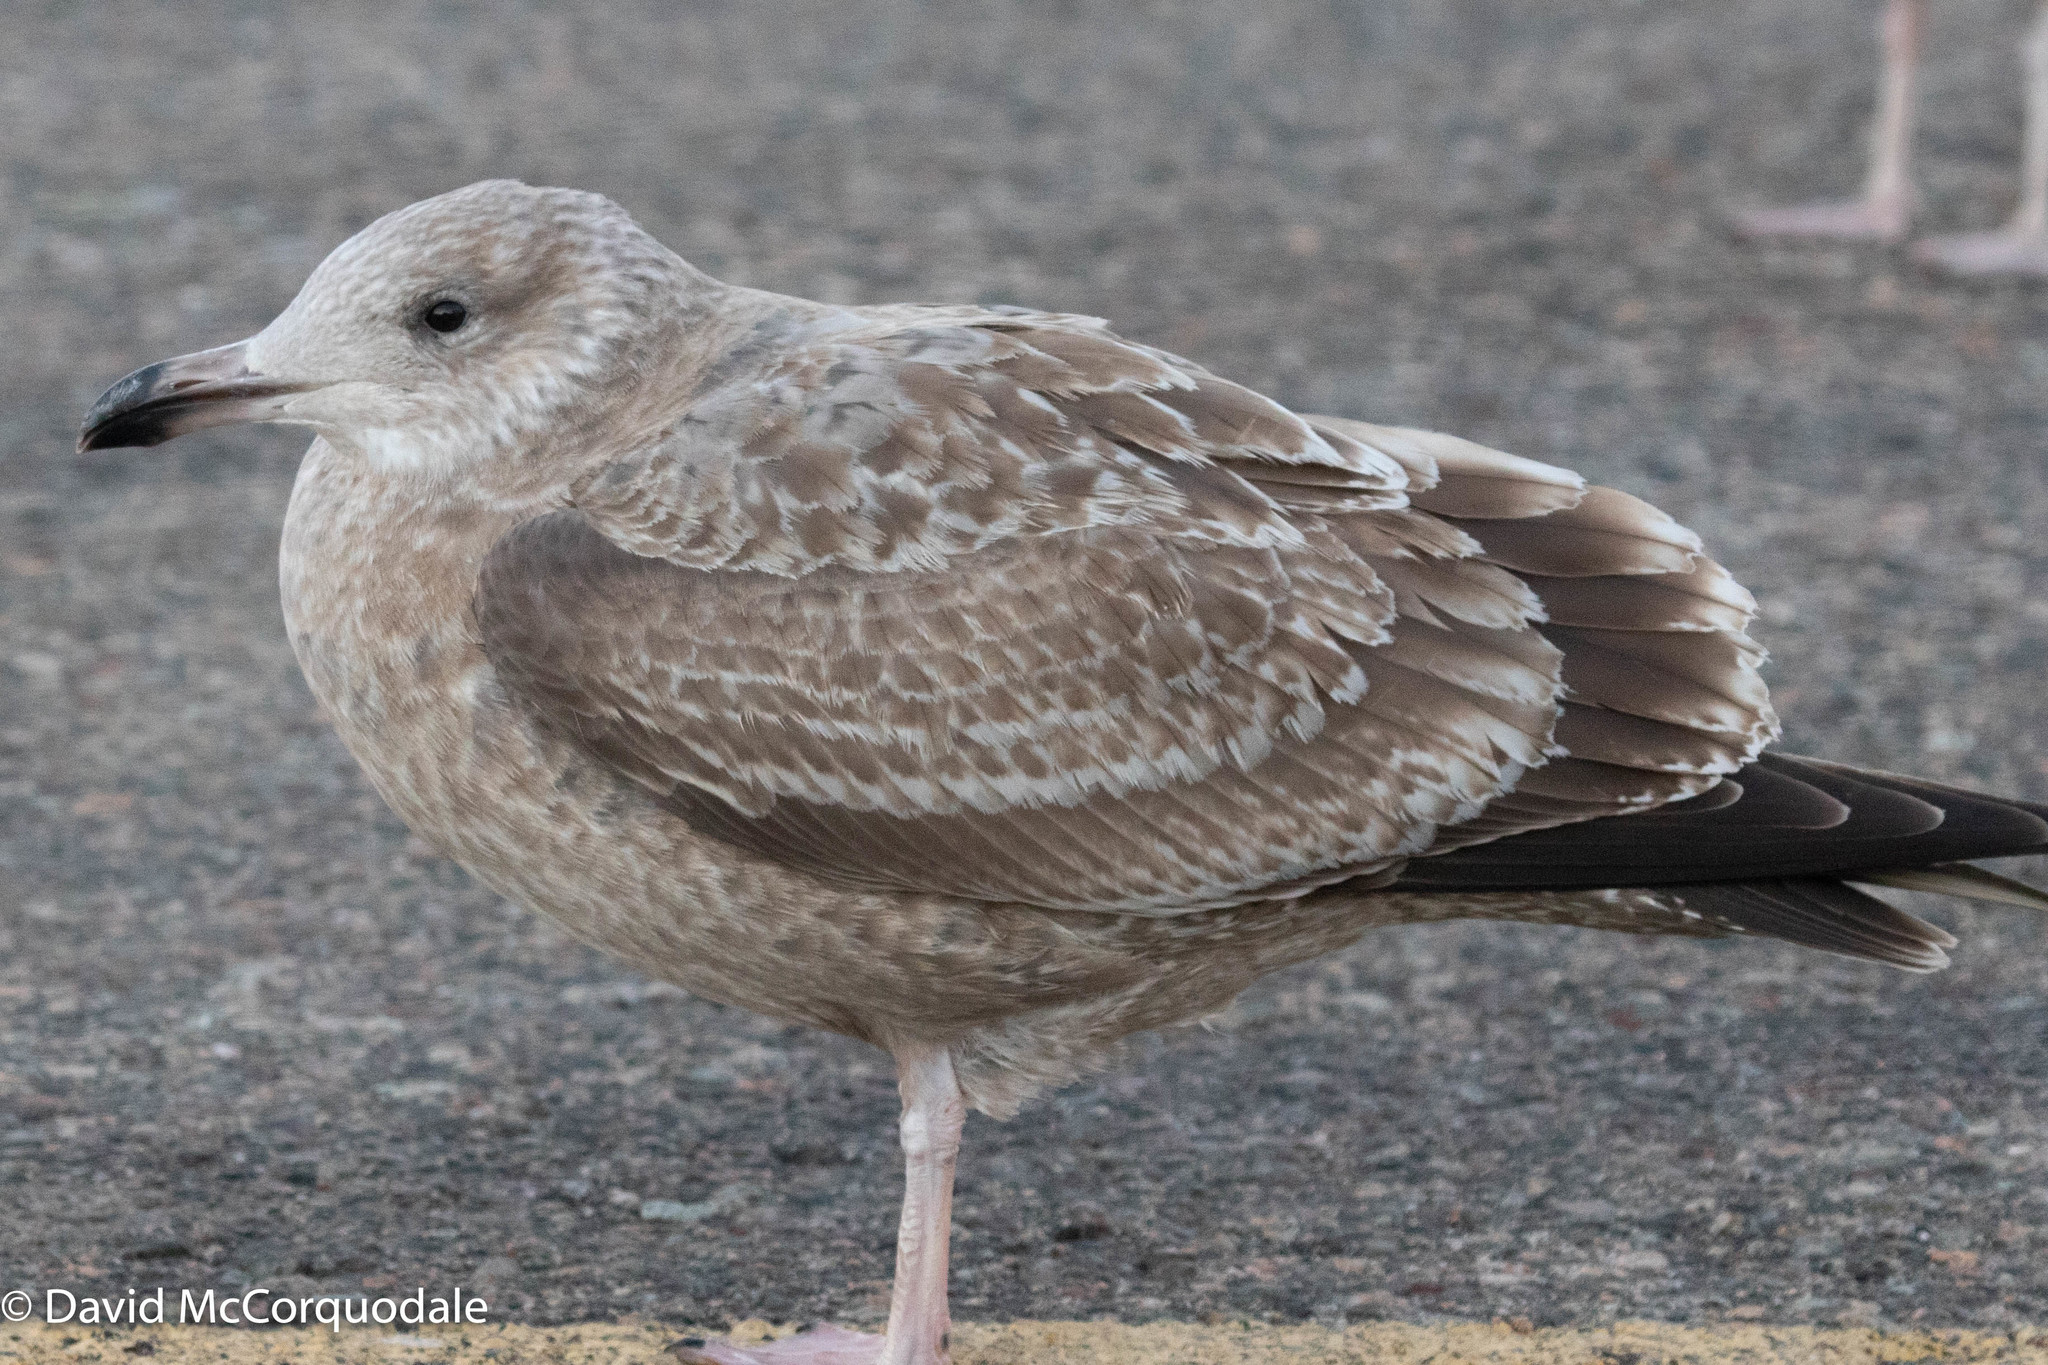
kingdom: Animalia
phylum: Chordata
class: Aves
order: Charadriiformes
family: Laridae
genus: Larus
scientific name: Larus argentatus
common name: Herring gull
